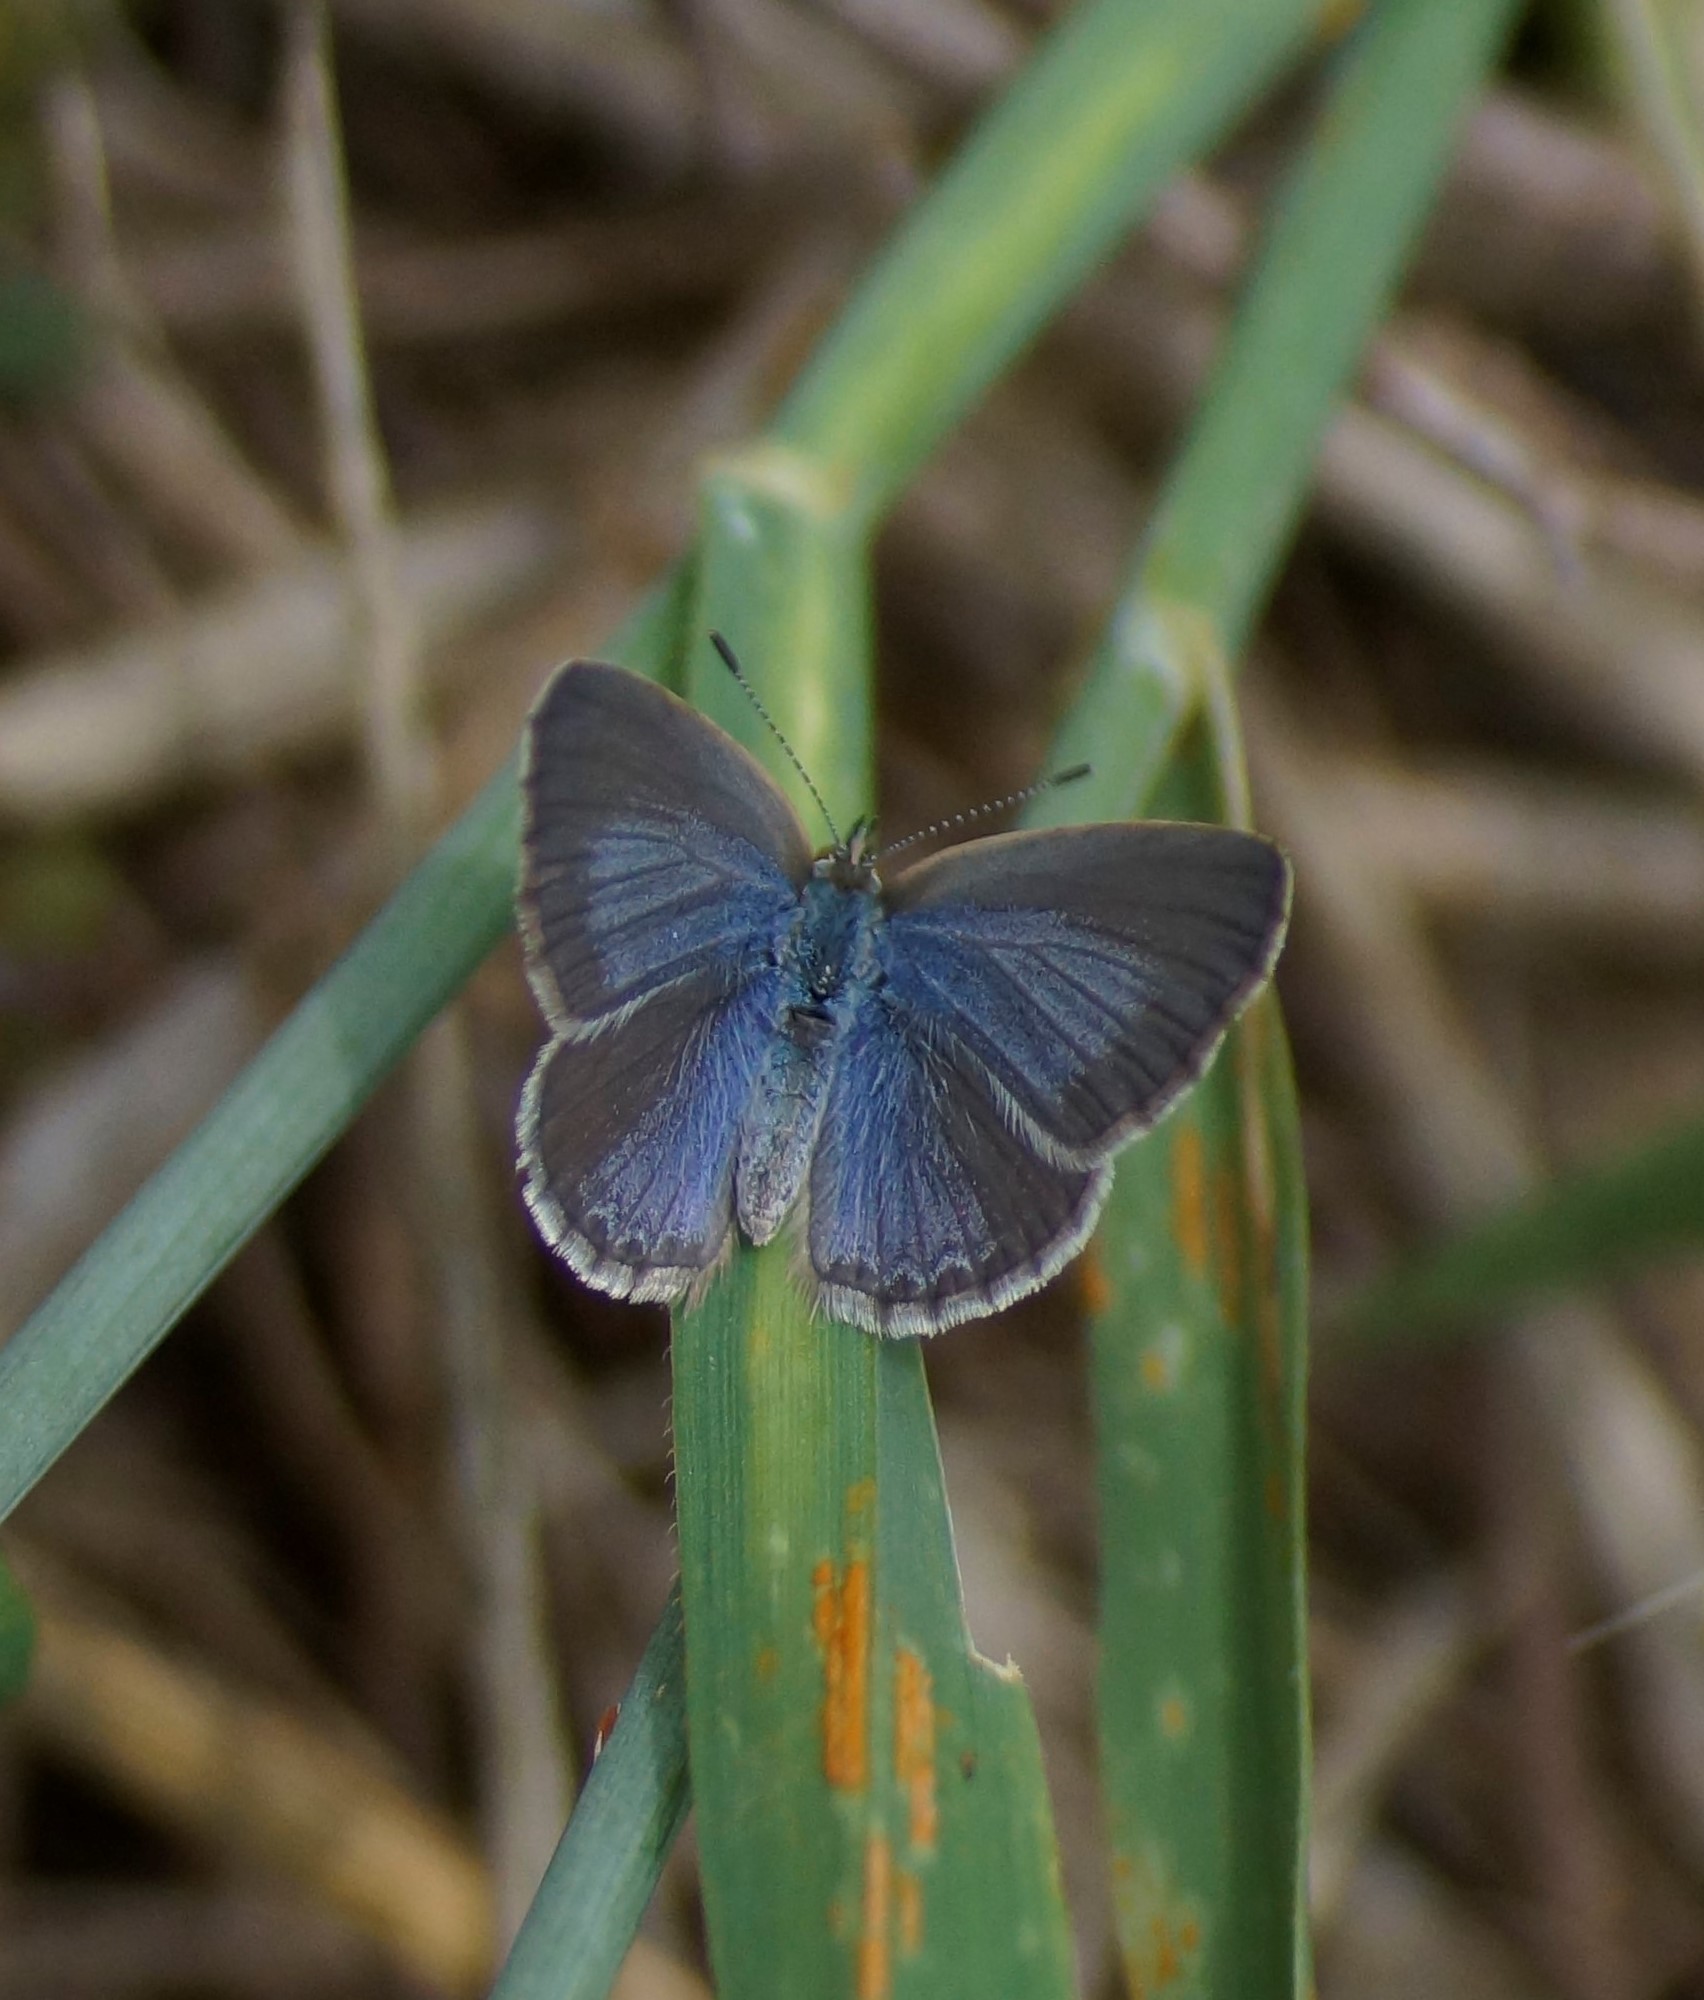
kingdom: Animalia
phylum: Arthropoda
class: Insecta
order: Lepidoptera
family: Lycaenidae
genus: Zizina
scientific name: Zizina labradus
